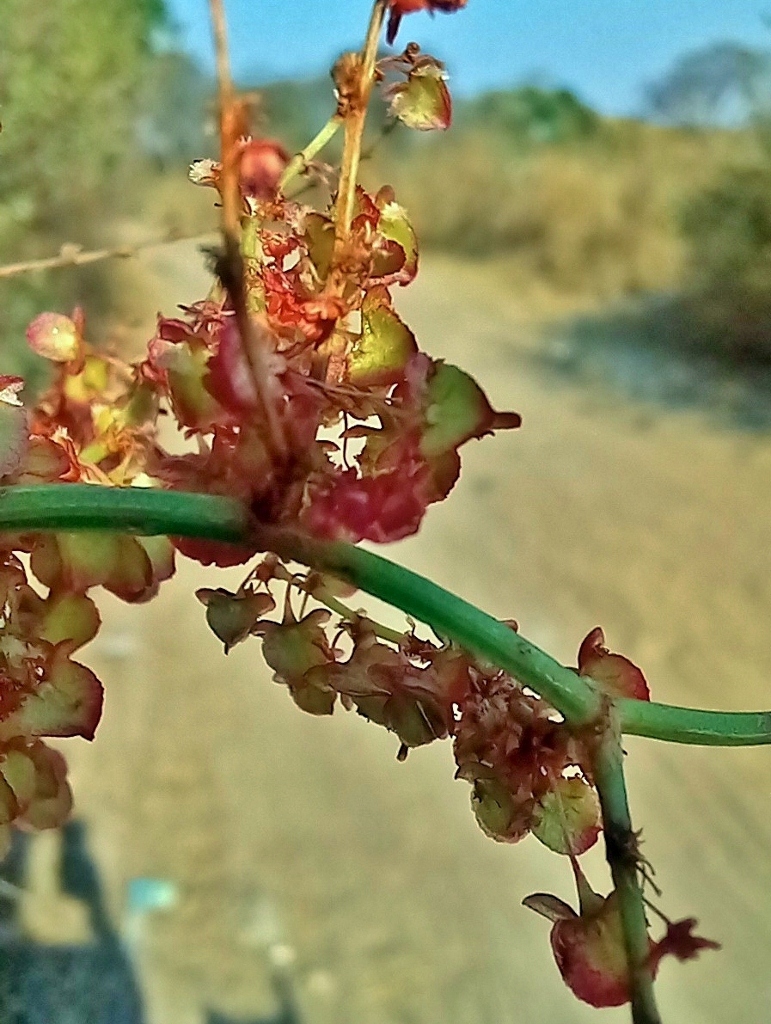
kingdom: Plantae
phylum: Tracheophyta
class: Magnoliopsida
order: Caryophyllales
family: Polygonaceae
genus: Rumex
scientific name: Rumex usambarensis
